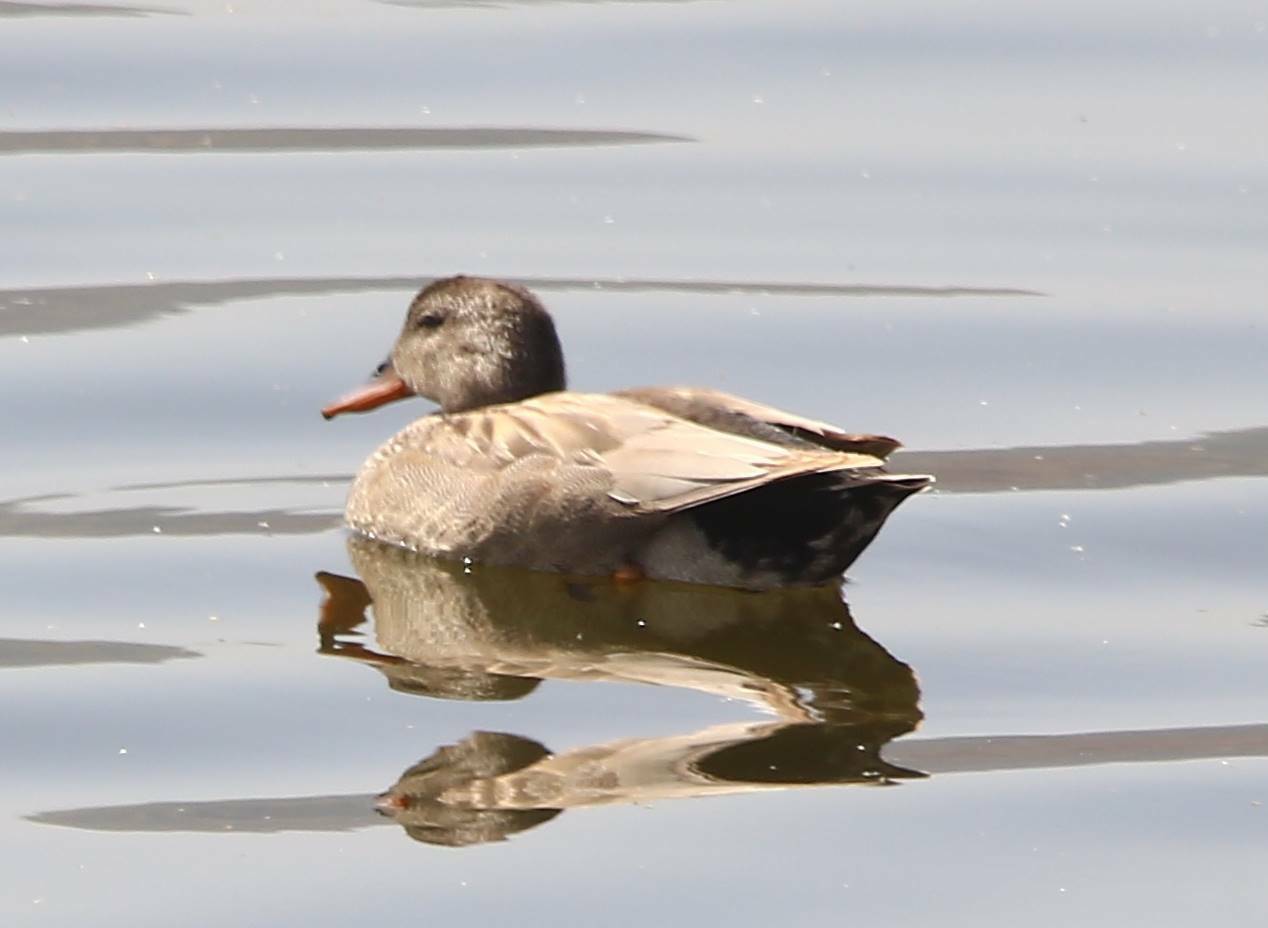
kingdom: Animalia
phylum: Chordata
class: Aves
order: Anseriformes
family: Anatidae
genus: Mareca
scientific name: Mareca strepera
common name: Gadwall
